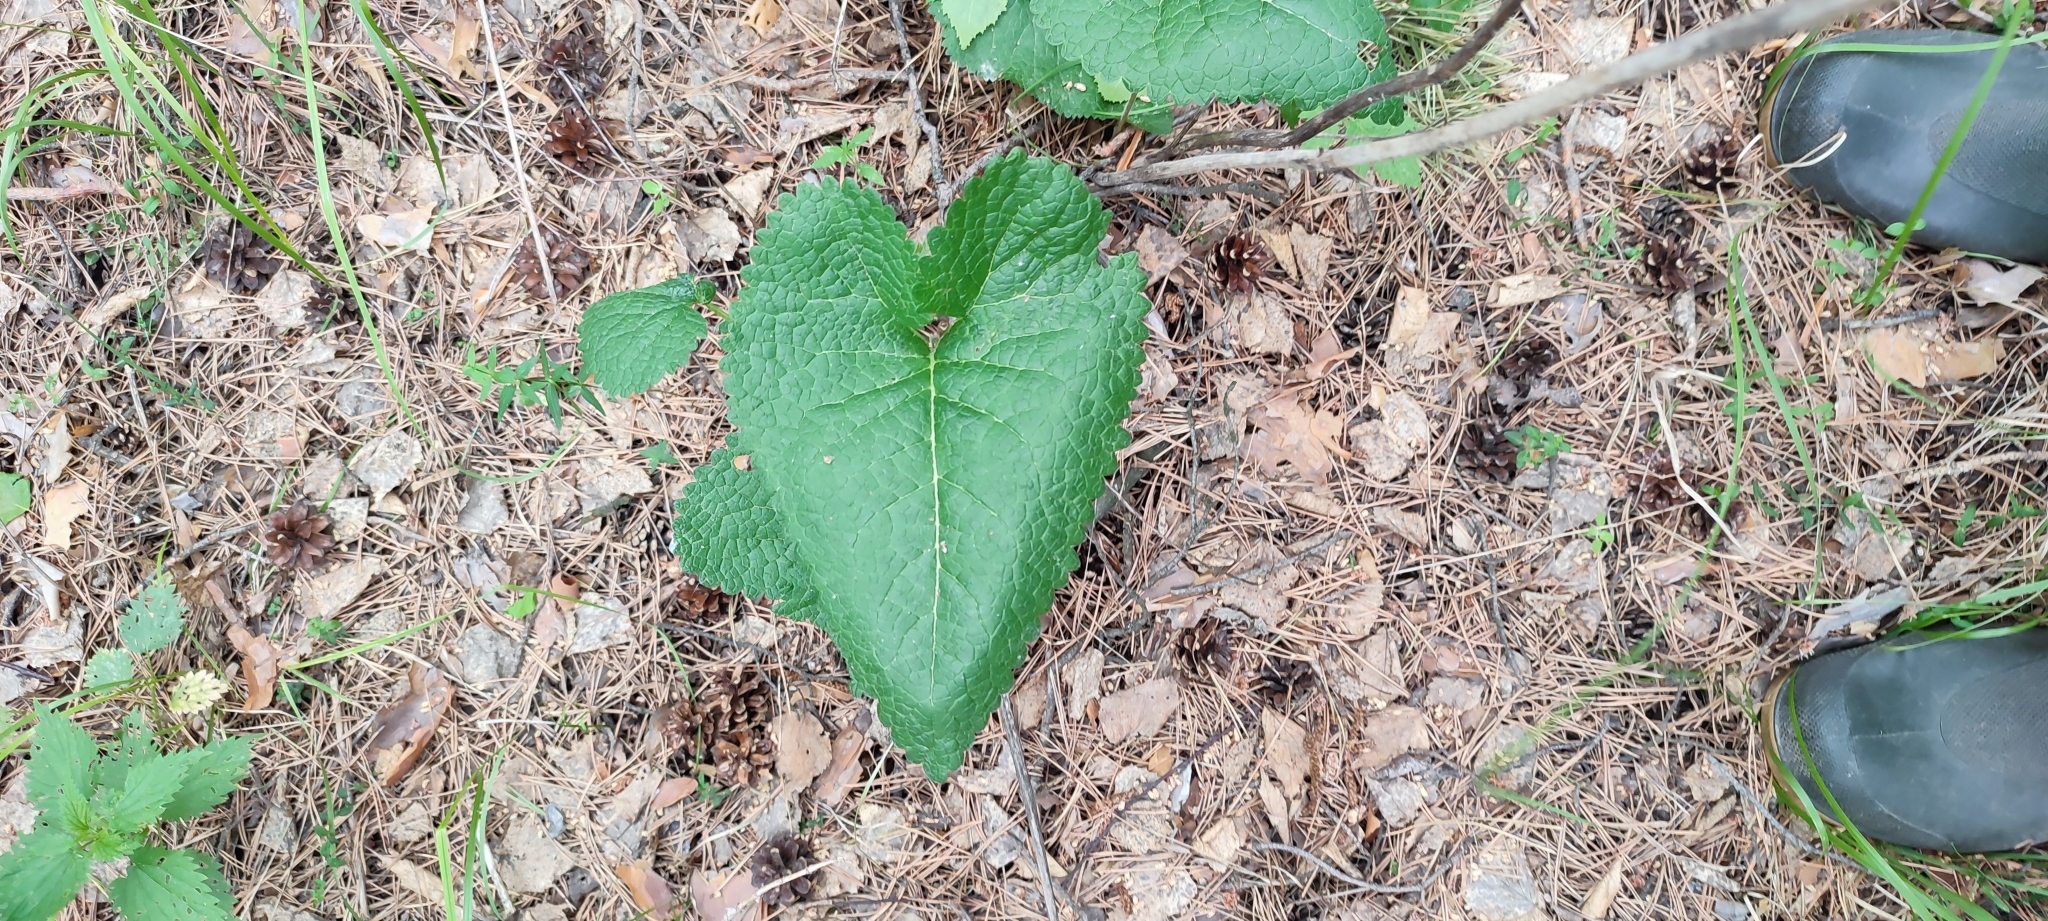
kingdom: Plantae
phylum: Tracheophyta
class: Magnoliopsida
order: Lamiales
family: Lamiaceae
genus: Phlomoides
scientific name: Phlomoides tuberosa
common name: Tuberous jerusalem sage
